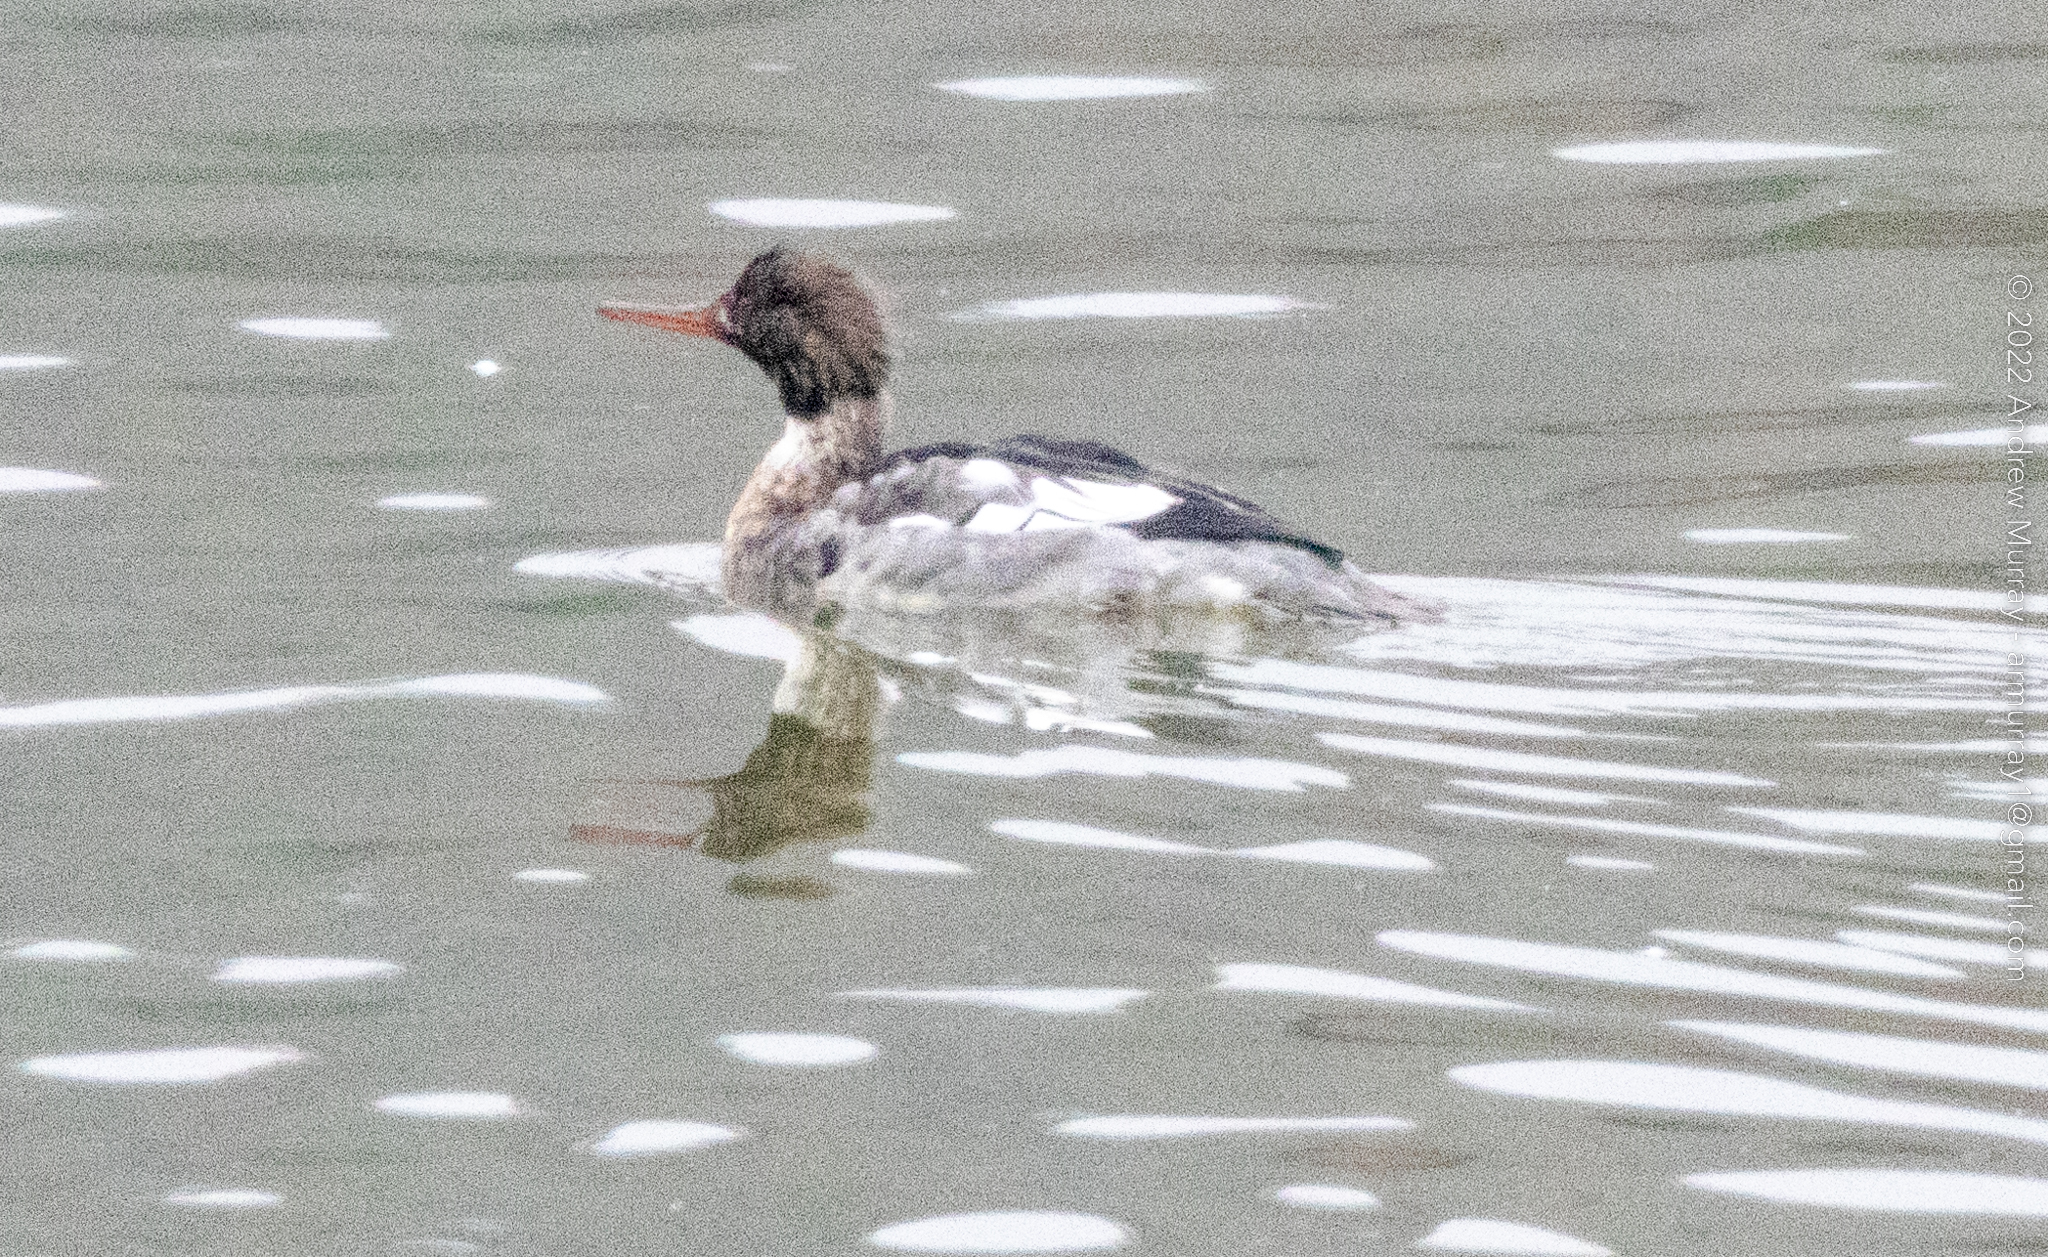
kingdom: Animalia
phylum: Chordata
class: Aves
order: Anseriformes
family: Anatidae
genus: Mergus
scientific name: Mergus serrator
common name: Red-breasted merganser
